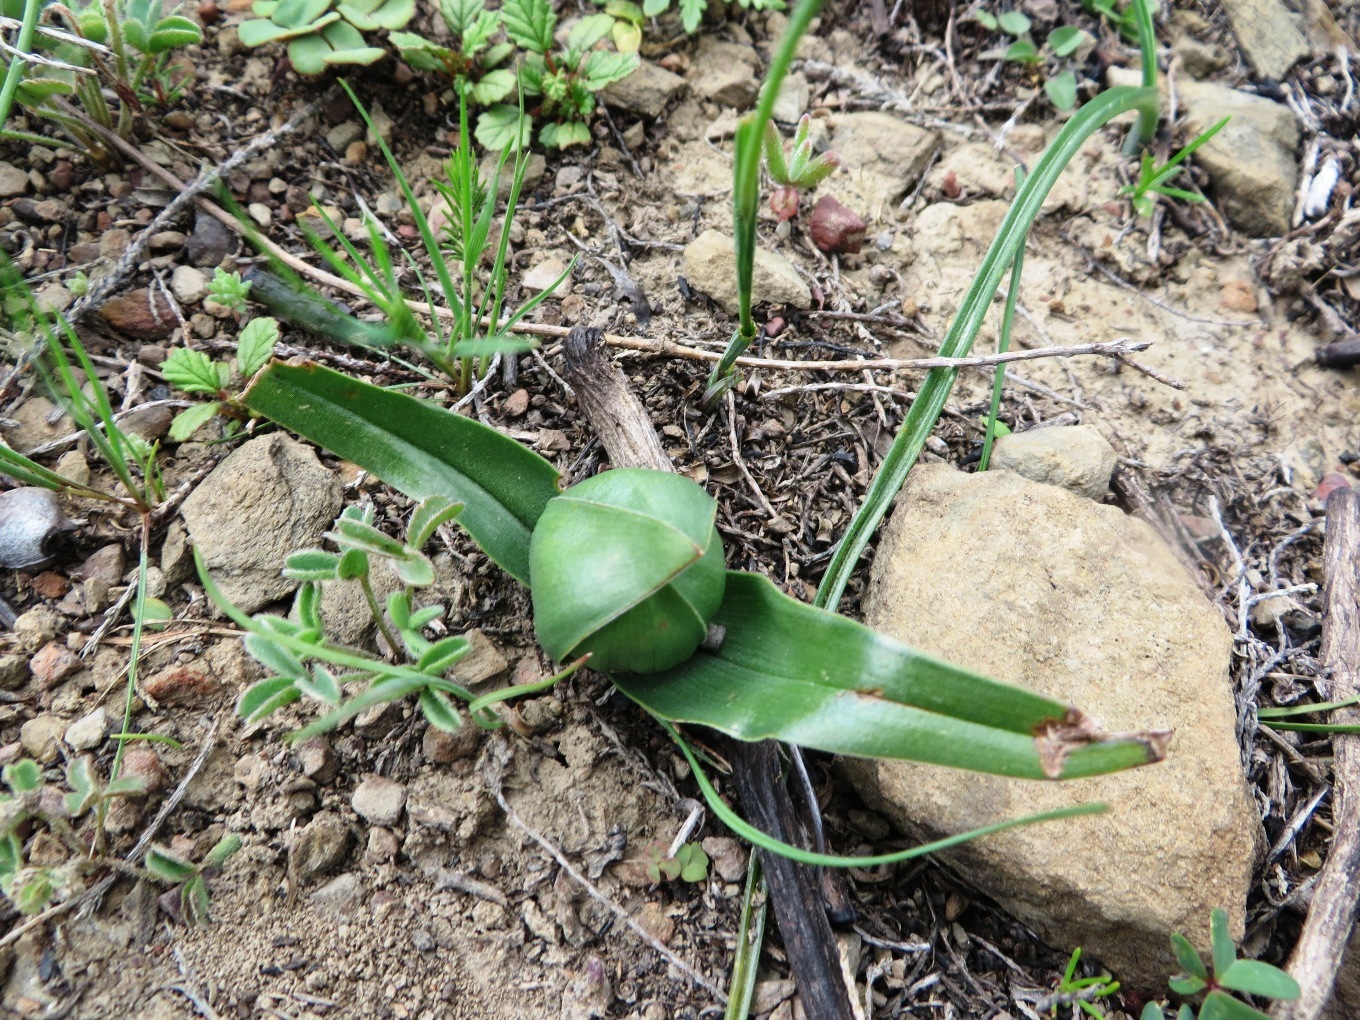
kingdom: Plantae
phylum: Tracheophyta
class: Liliopsida
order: Liliales
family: Colchicaceae
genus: Colchicum
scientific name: Colchicum eucomoides
